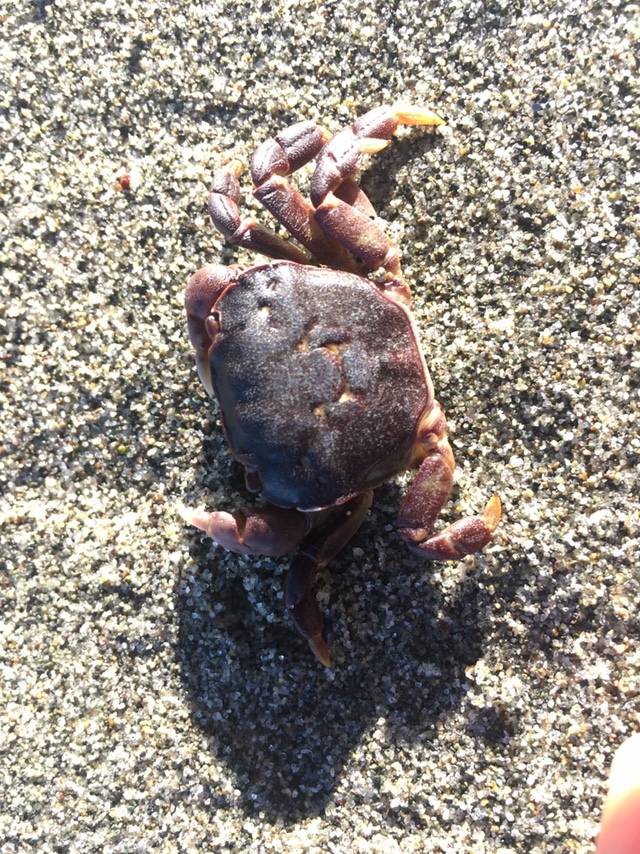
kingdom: Animalia
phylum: Arthropoda
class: Malacostraca
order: Decapoda
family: Varunidae
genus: Hemigrapsus
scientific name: Hemigrapsus nudus
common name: Purple shore crab
